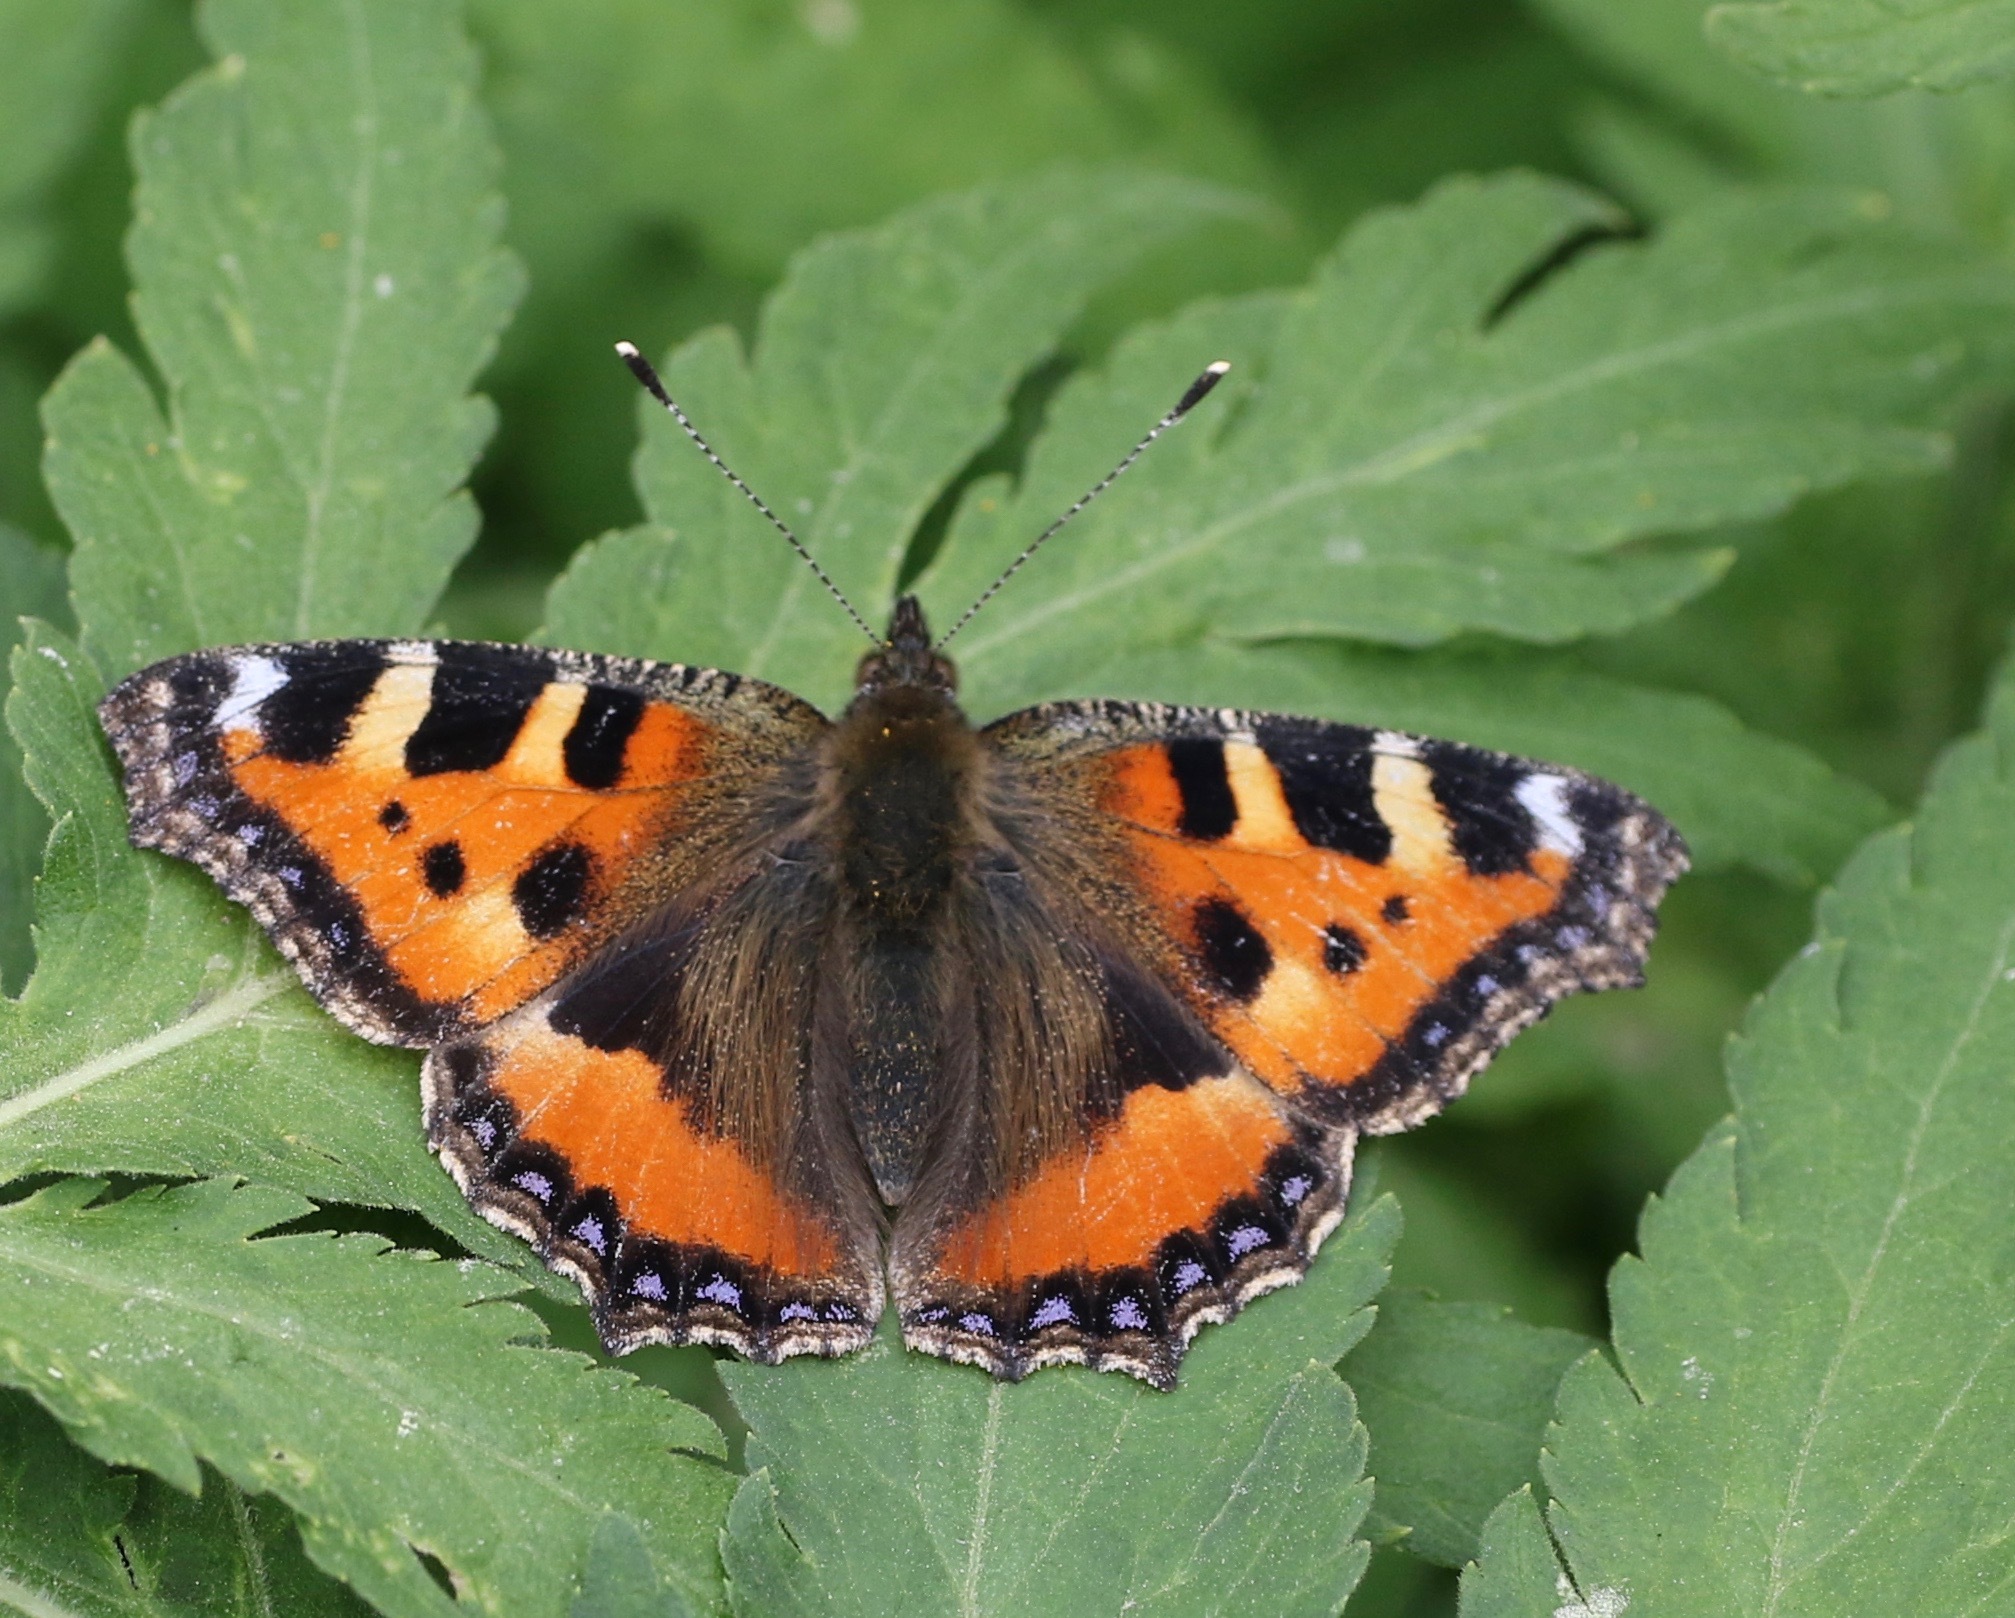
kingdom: Animalia
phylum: Arthropoda
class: Insecta
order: Lepidoptera
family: Nymphalidae
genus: Aglais
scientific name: Aglais urticae
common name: Small tortoiseshell
